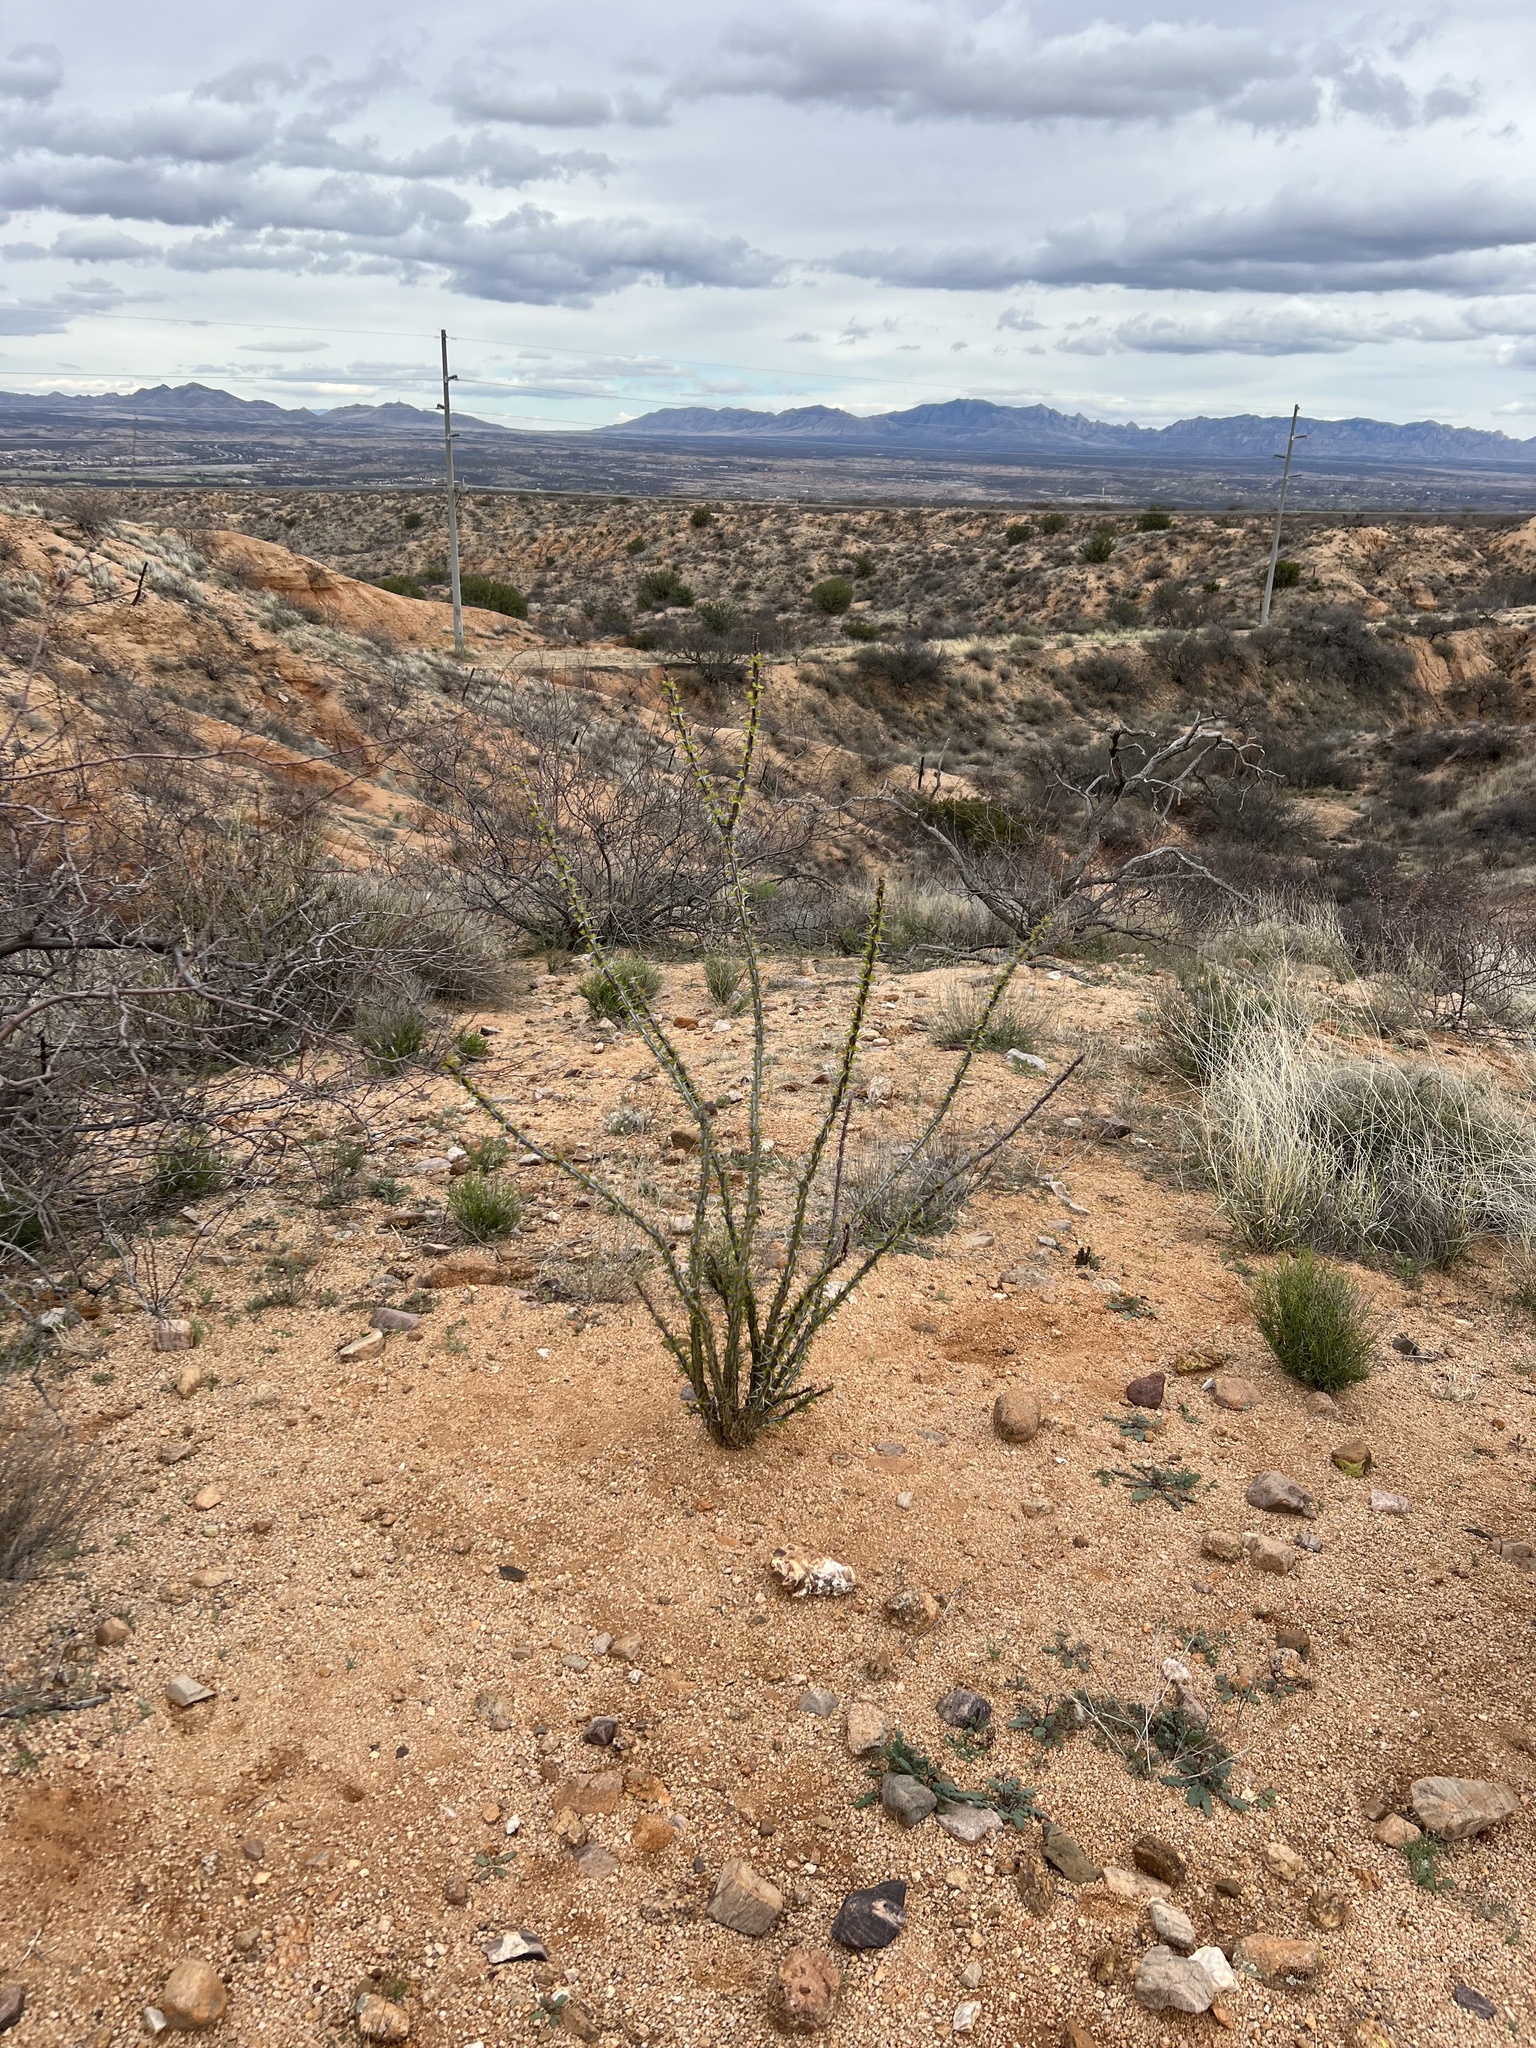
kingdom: Plantae
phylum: Tracheophyta
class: Magnoliopsida
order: Ericales
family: Fouquieriaceae
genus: Fouquieria
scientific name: Fouquieria splendens
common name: Vine-cactus
